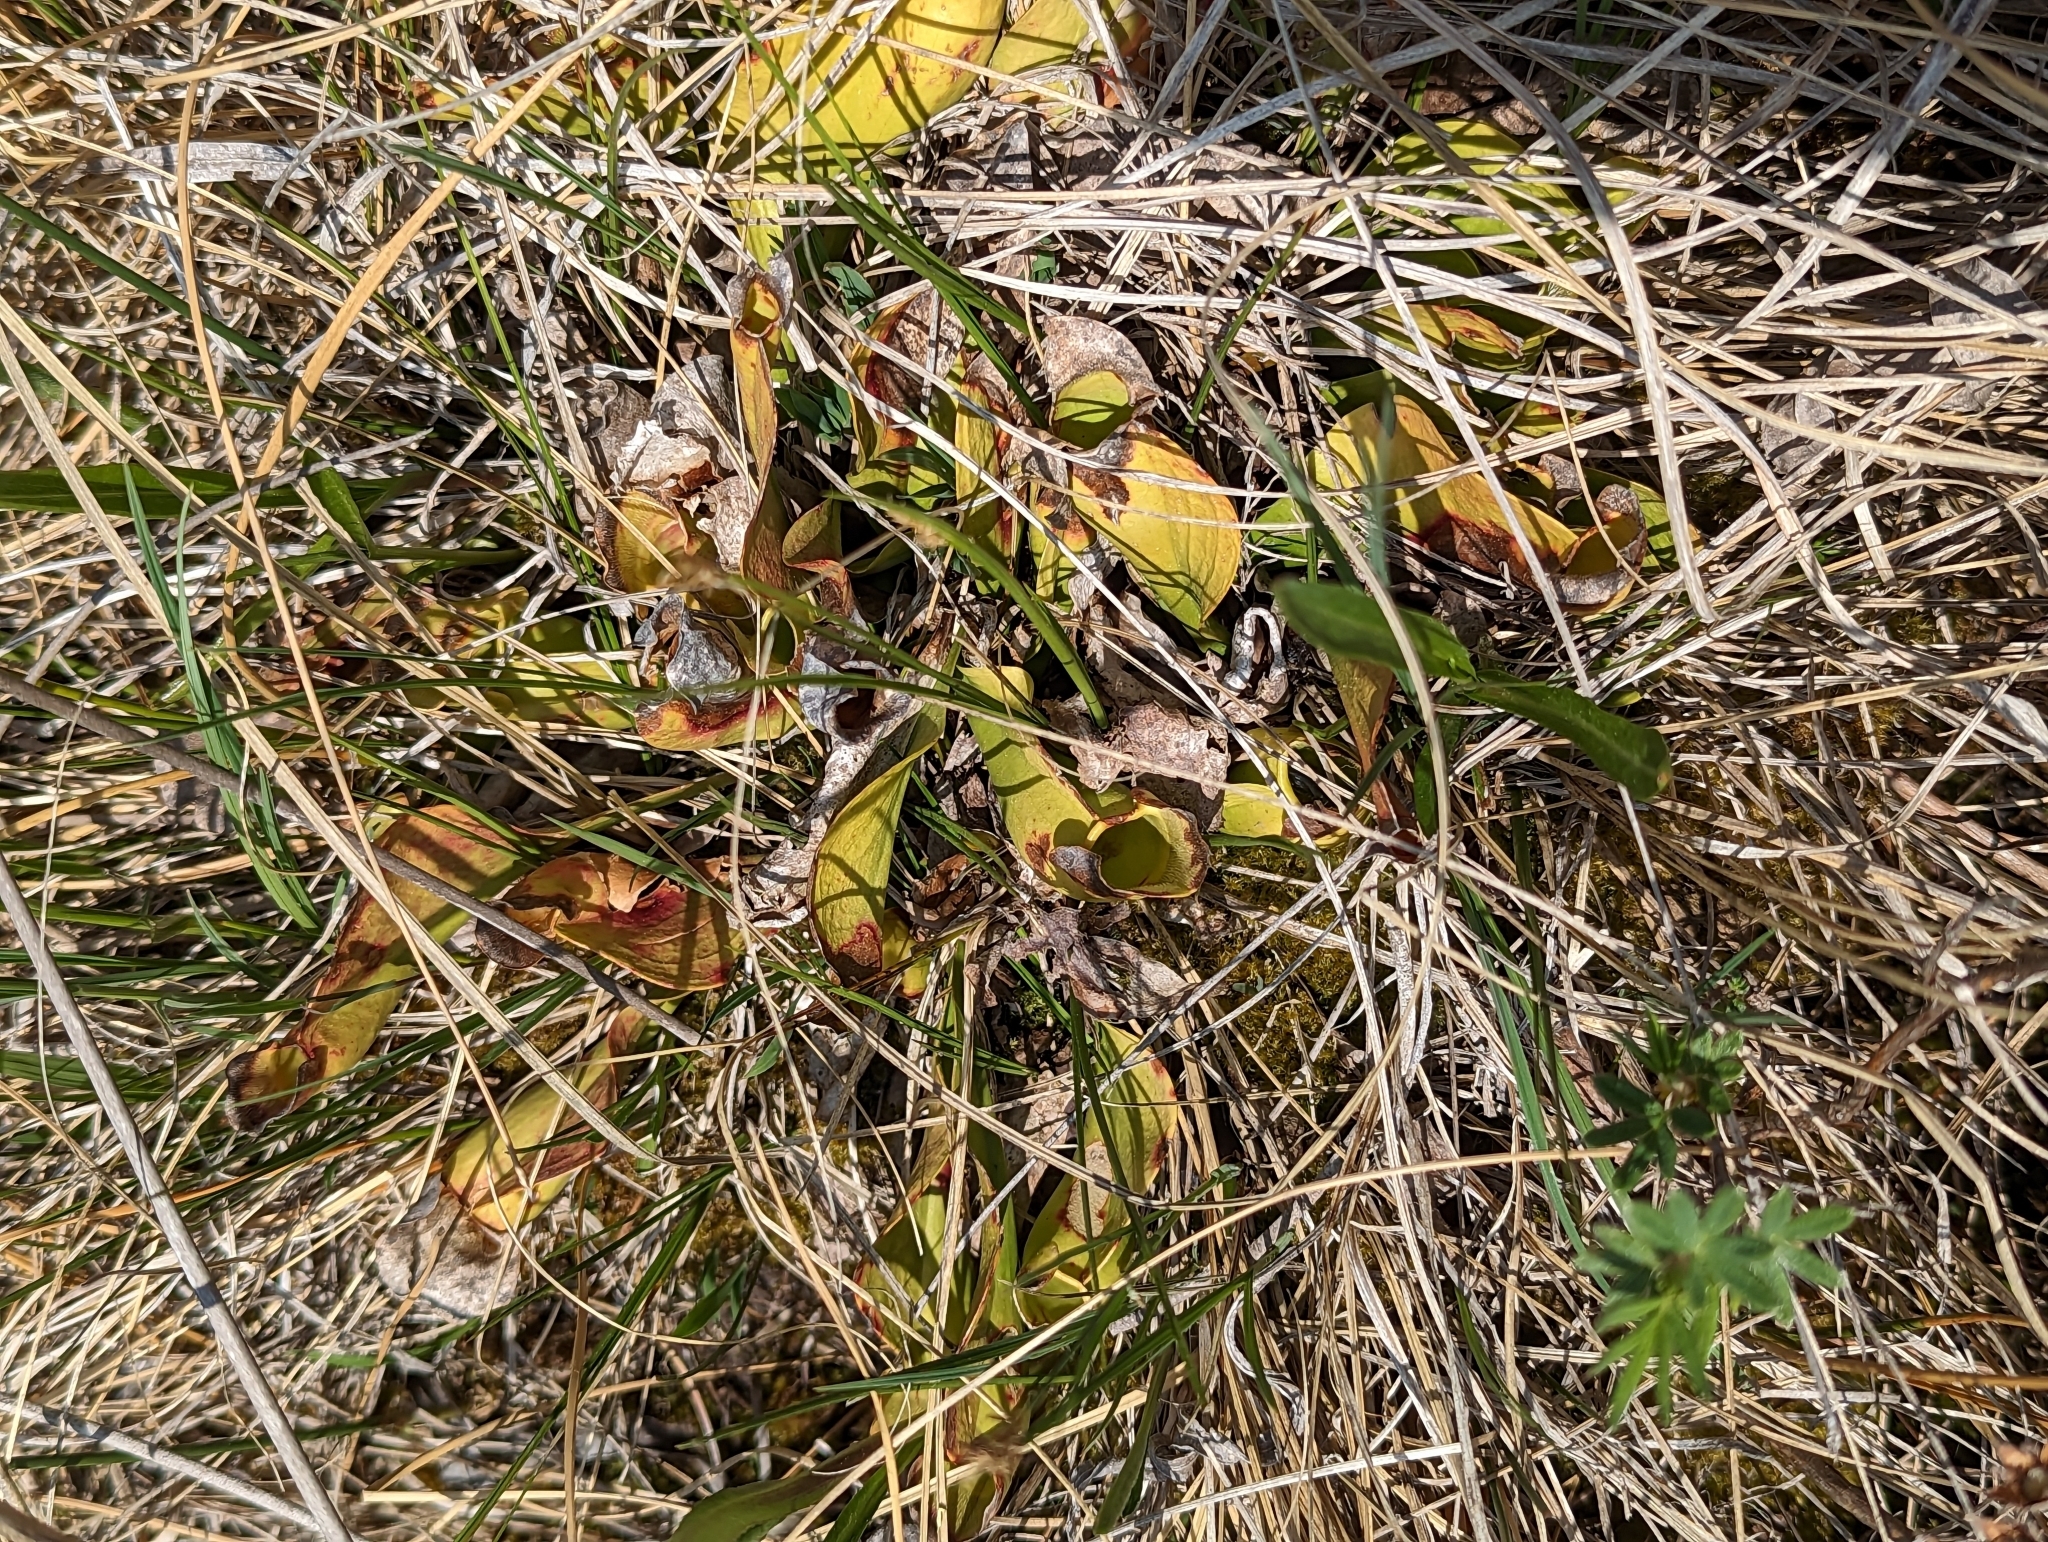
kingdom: Plantae
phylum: Tracheophyta
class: Magnoliopsida
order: Ericales
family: Sarraceniaceae
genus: Sarracenia
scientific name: Sarracenia purpurea
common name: Pitcherplant
